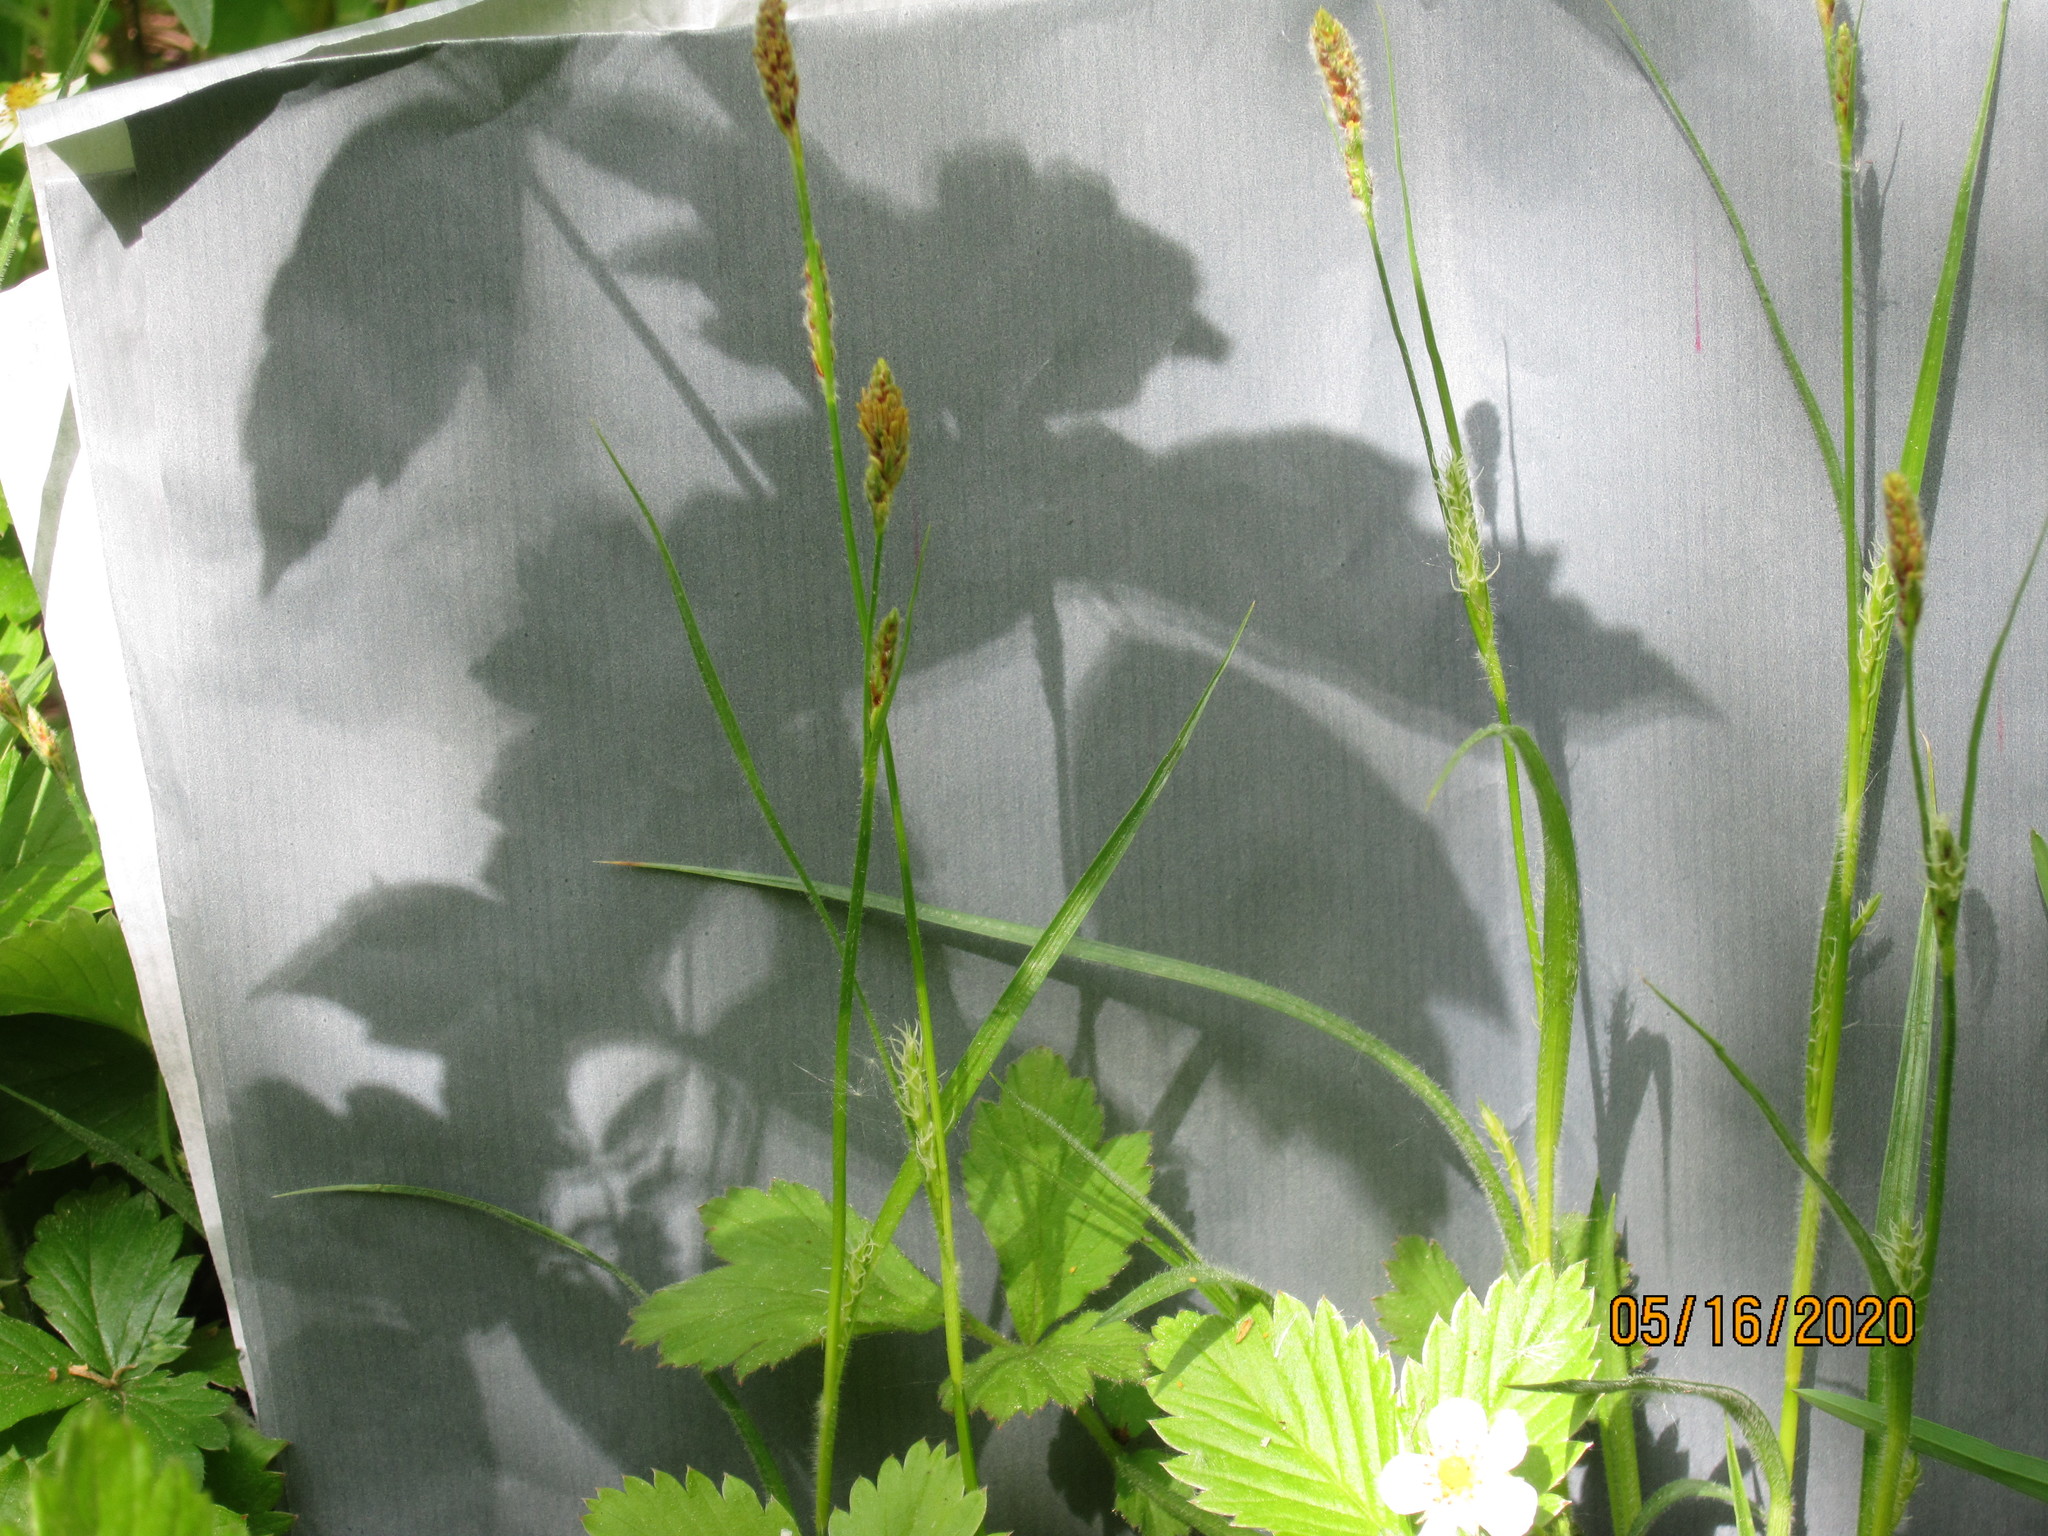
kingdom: Plantae
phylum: Tracheophyta
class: Liliopsida
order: Poales
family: Cyperaceae
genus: Carex
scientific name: Carex hirta
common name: Hairy sedge
